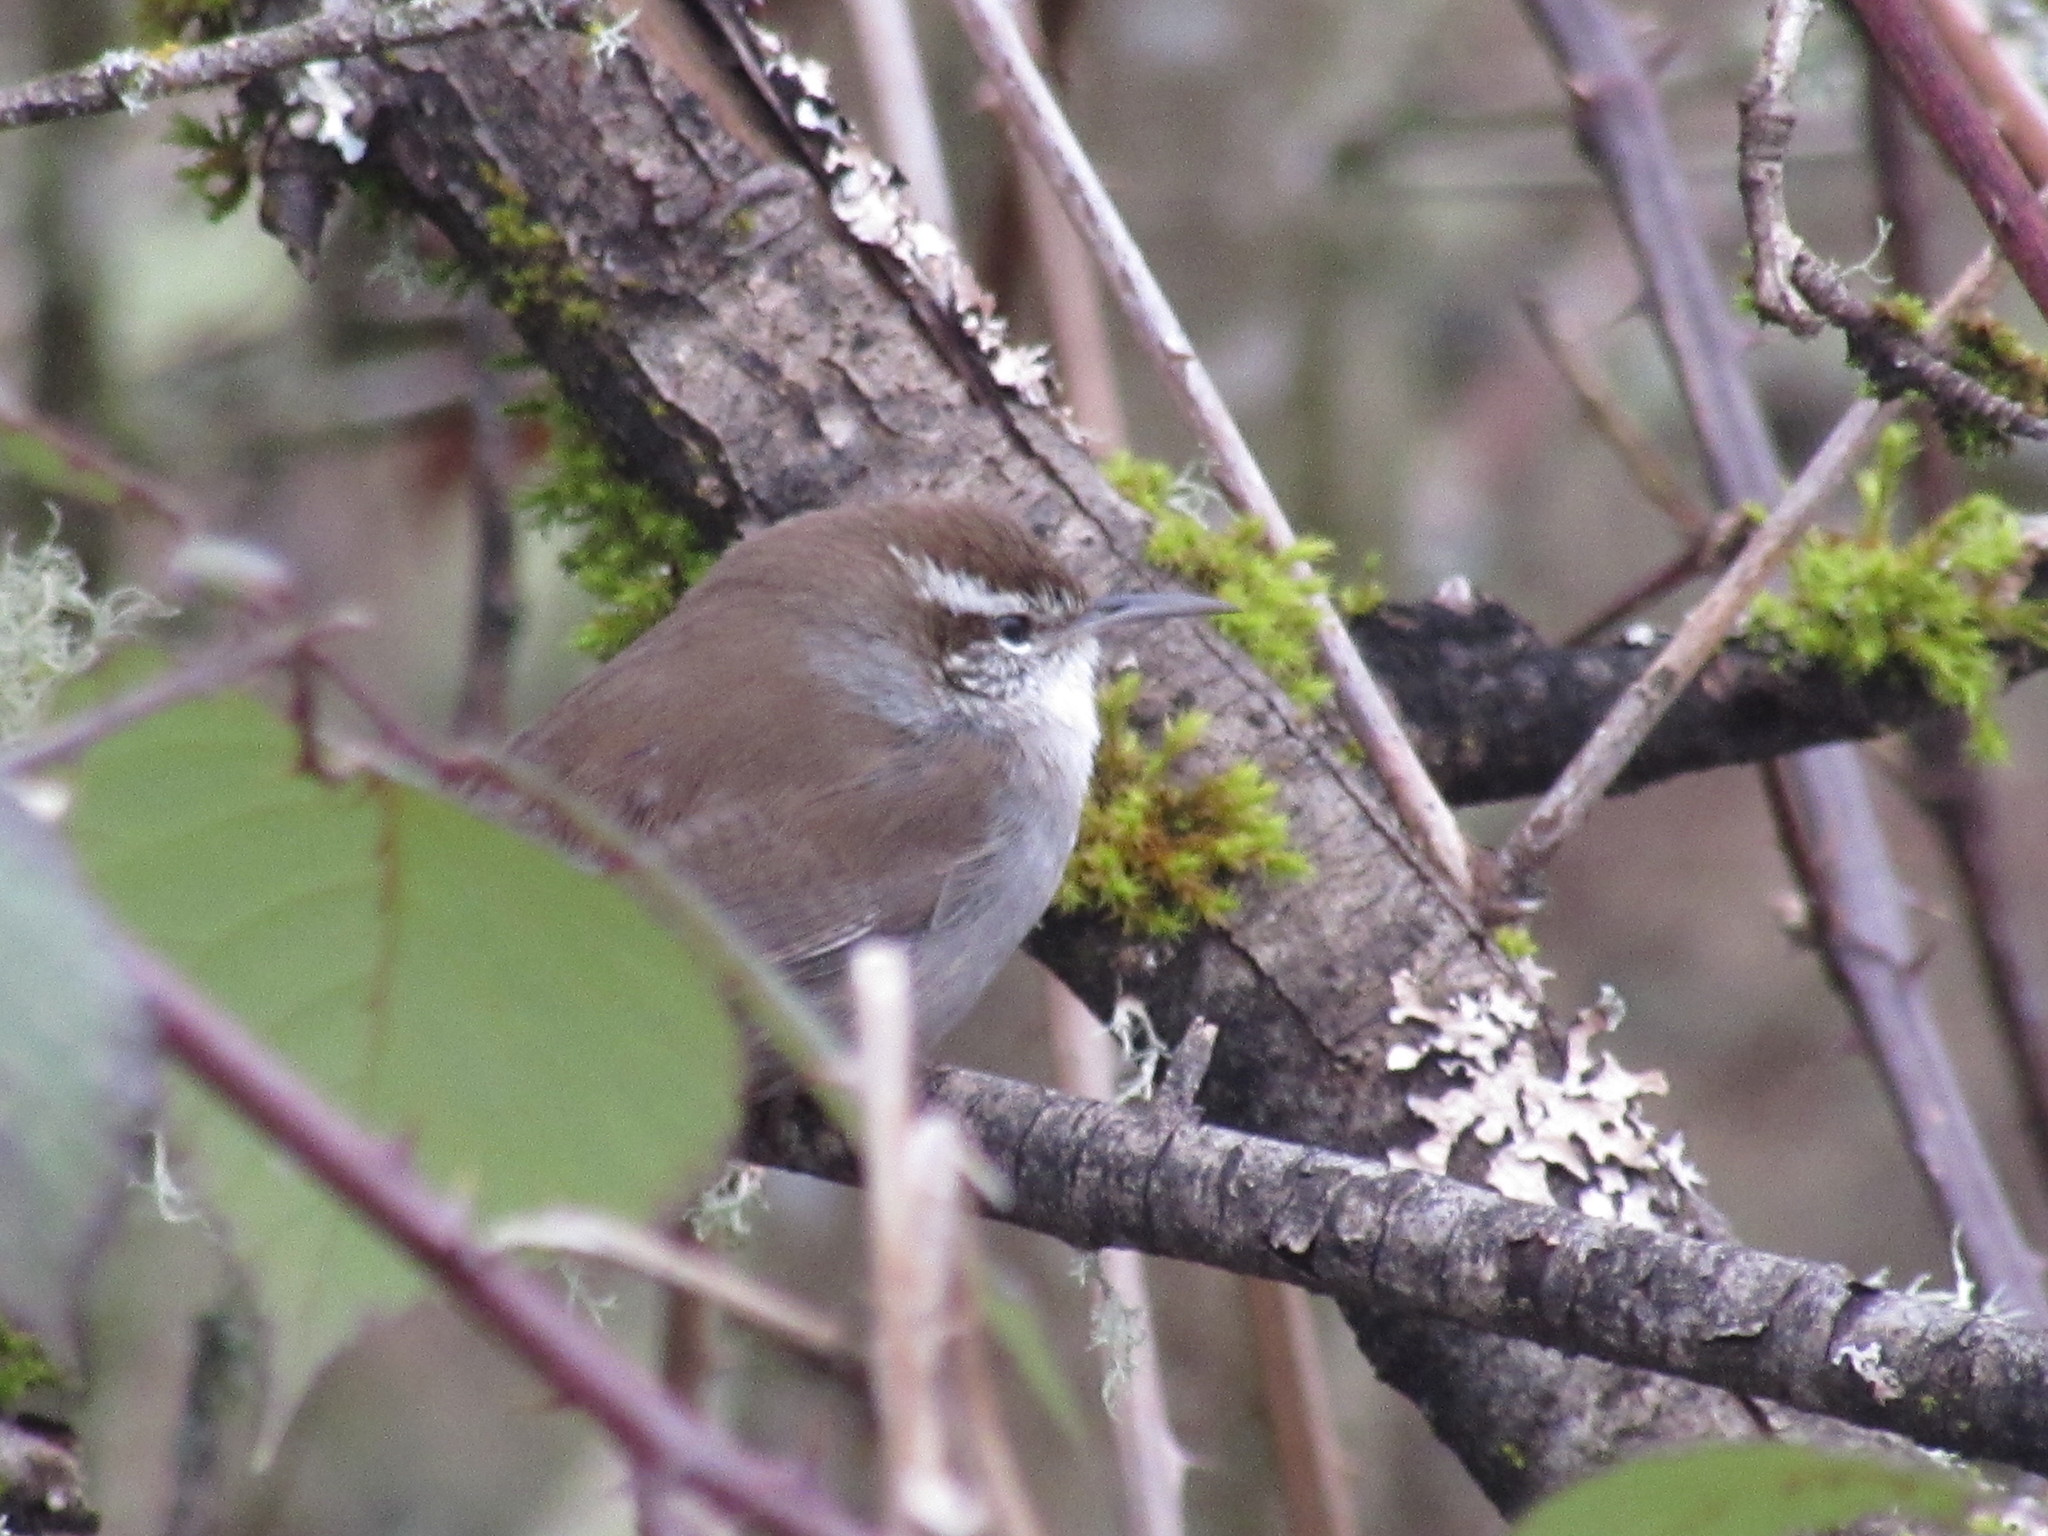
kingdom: Animalia
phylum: Chordata
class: Aves
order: Passeriformes
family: Troglodytidae
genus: Thryomanes
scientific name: Thryomanes bewickii
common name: Bewick's wren
